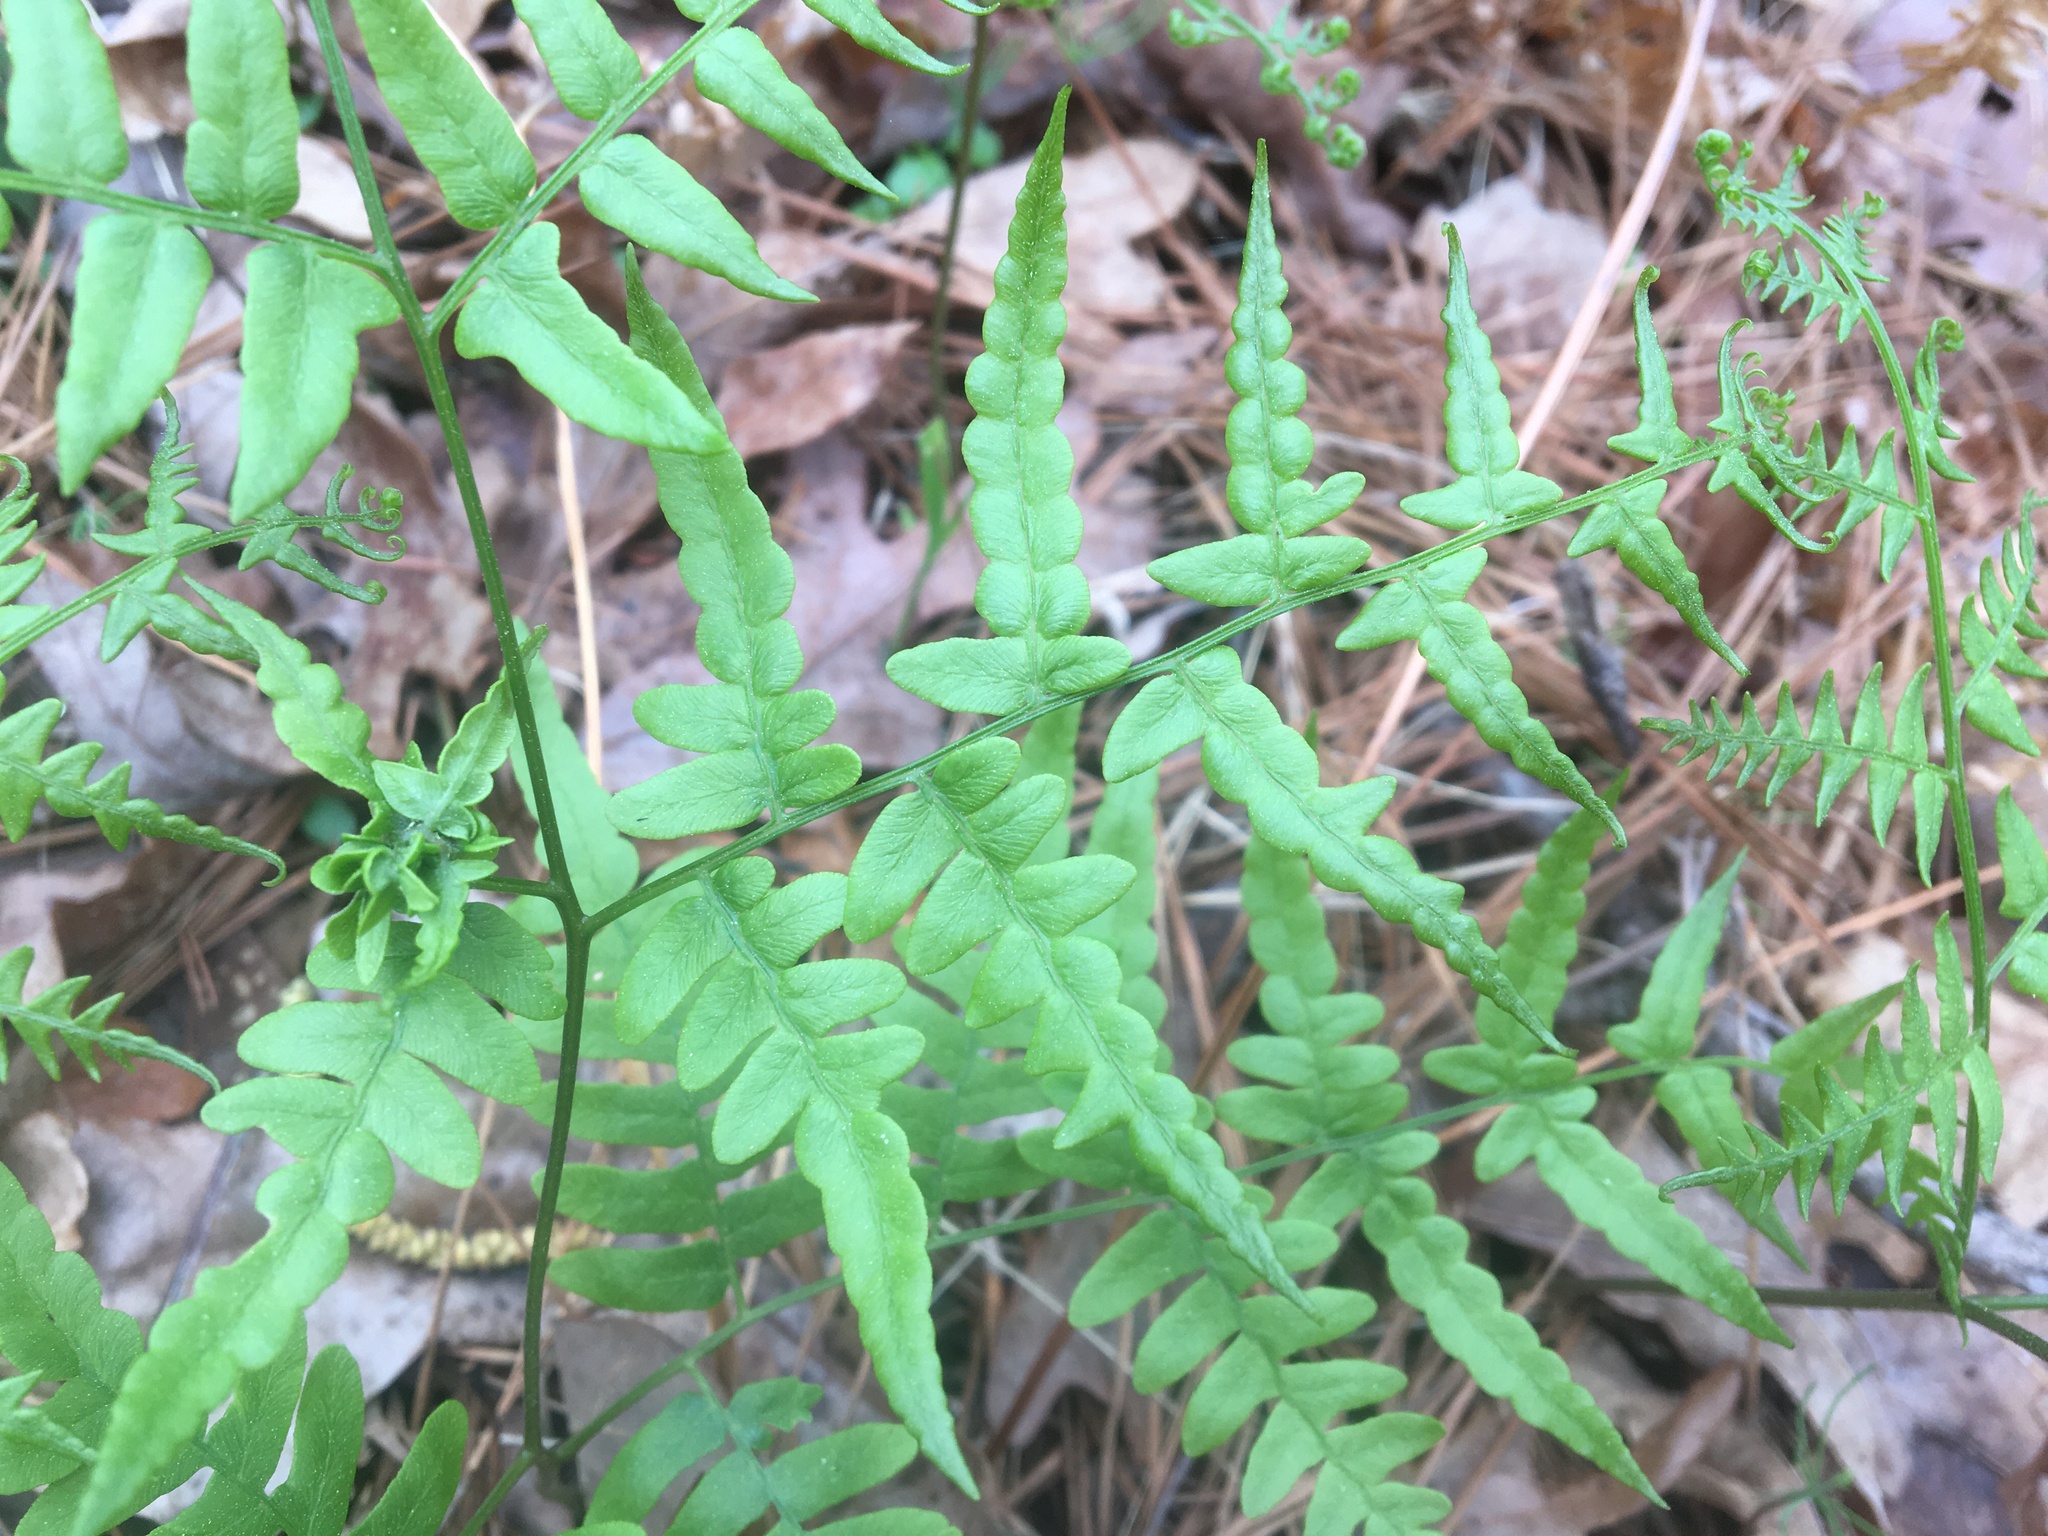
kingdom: Plantae
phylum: Tracheophyta
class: Polypodiopsida
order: Polypodiales
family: Dennstaedtiaceae
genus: Pteridium
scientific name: Pteridium aquilinum
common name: Bracken
